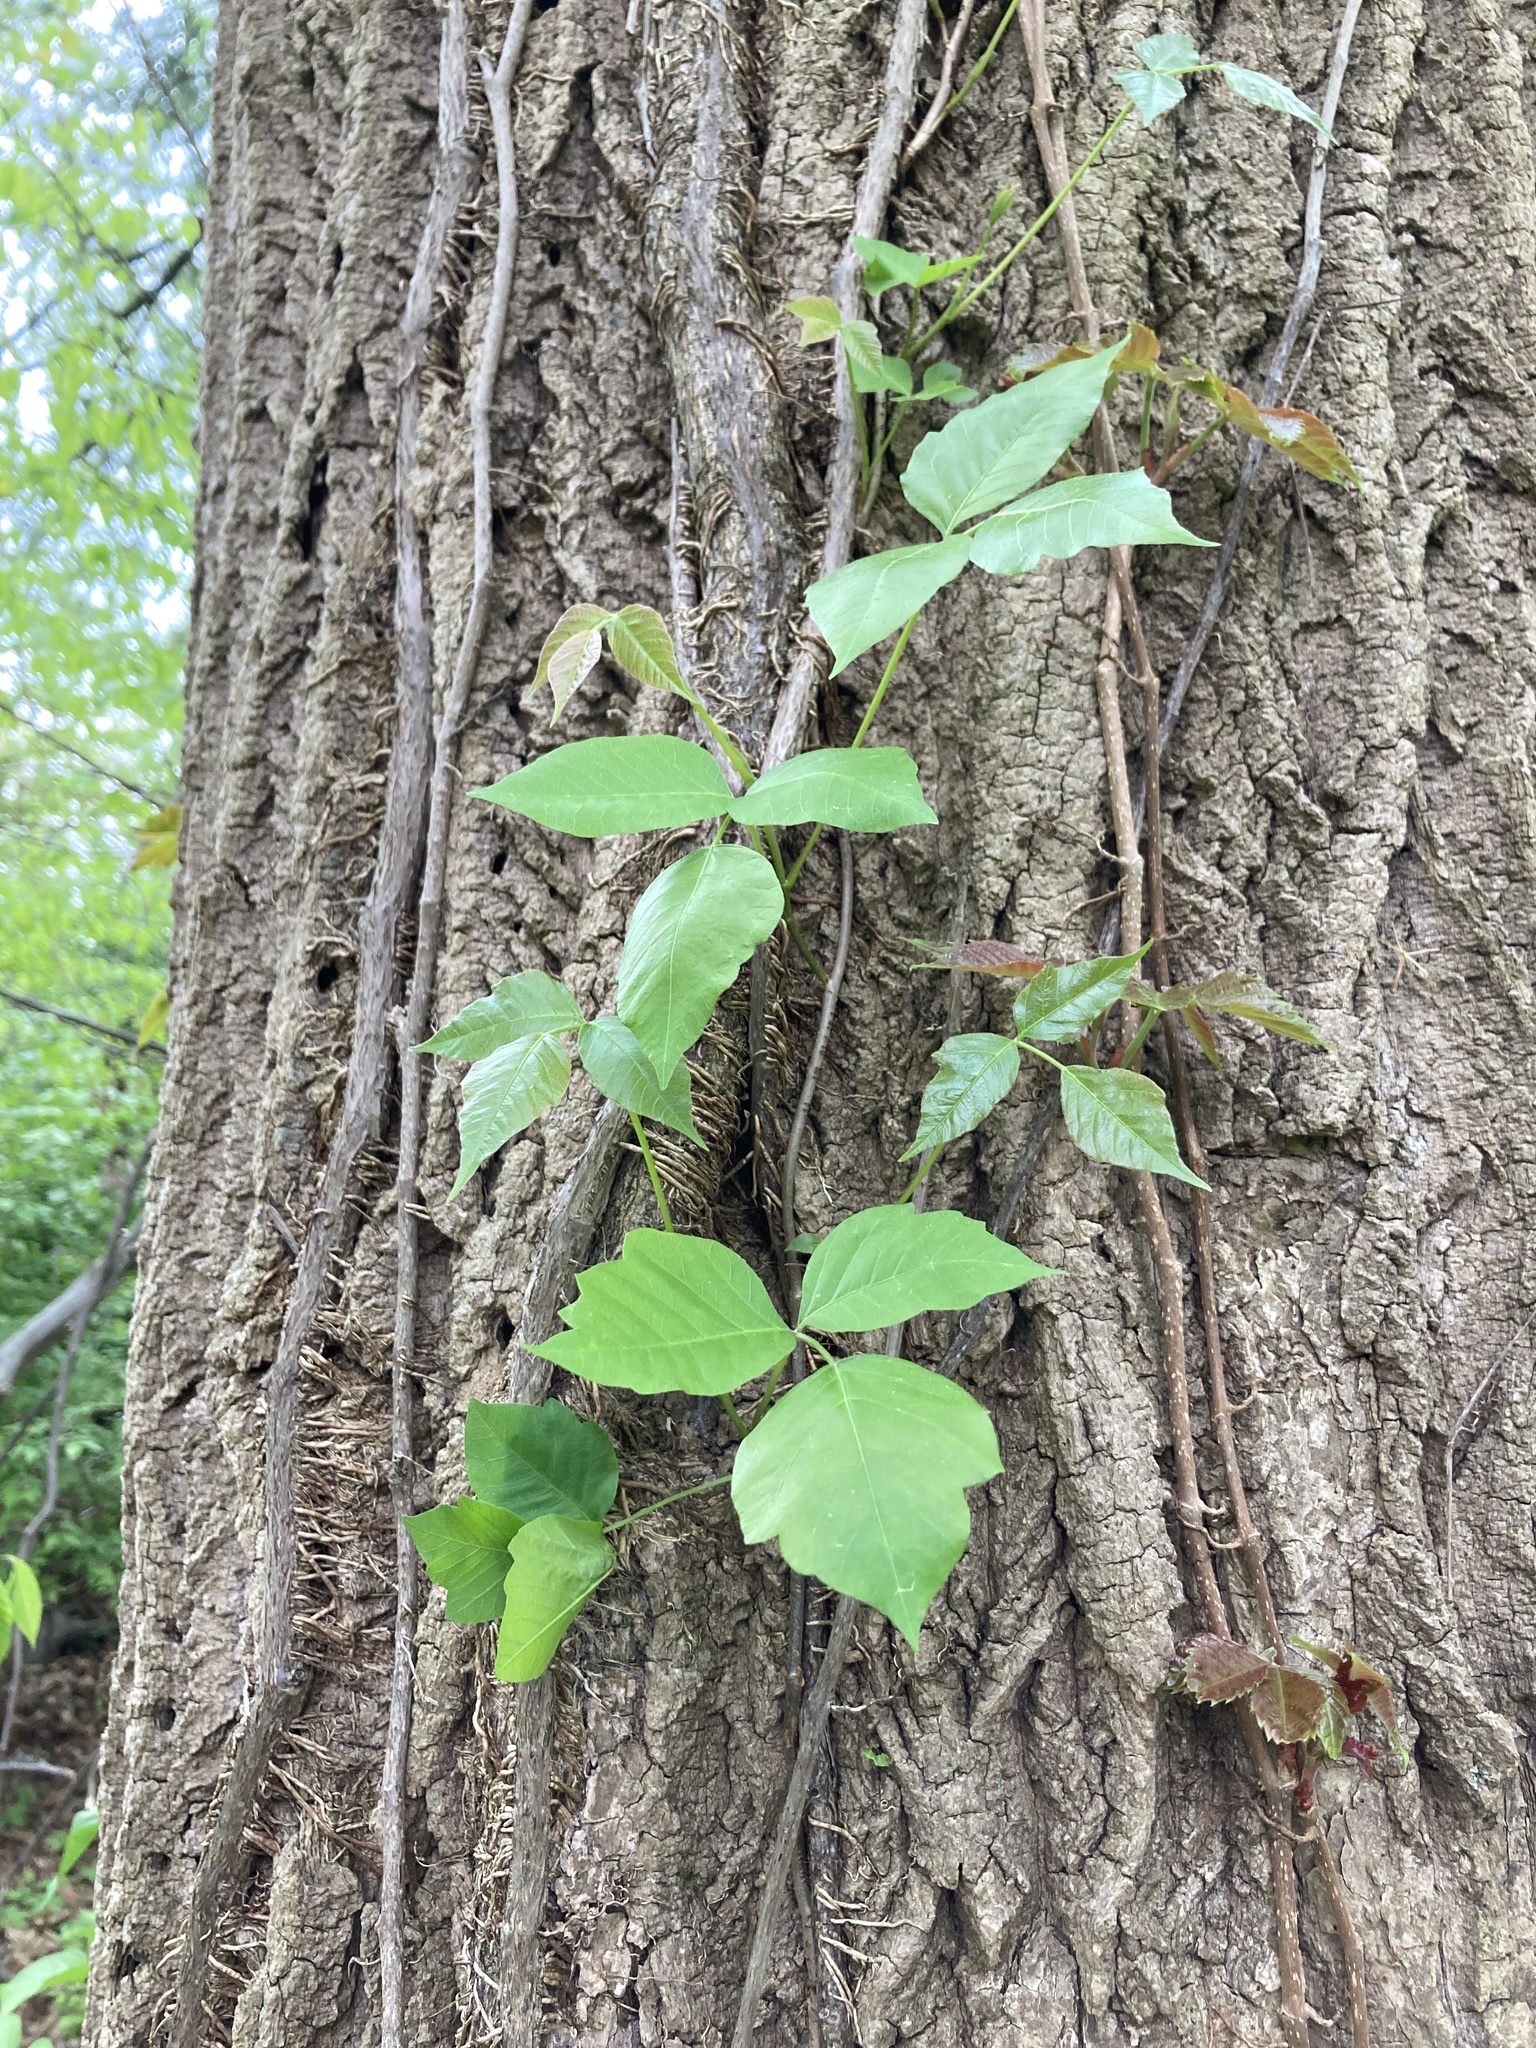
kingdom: Plantae
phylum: Tracheophyta
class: Magnoliopsida
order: Sapindales
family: Anacardiaceae
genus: Toxicodendron
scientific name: Toxicodendron radicans
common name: Poison ivy
